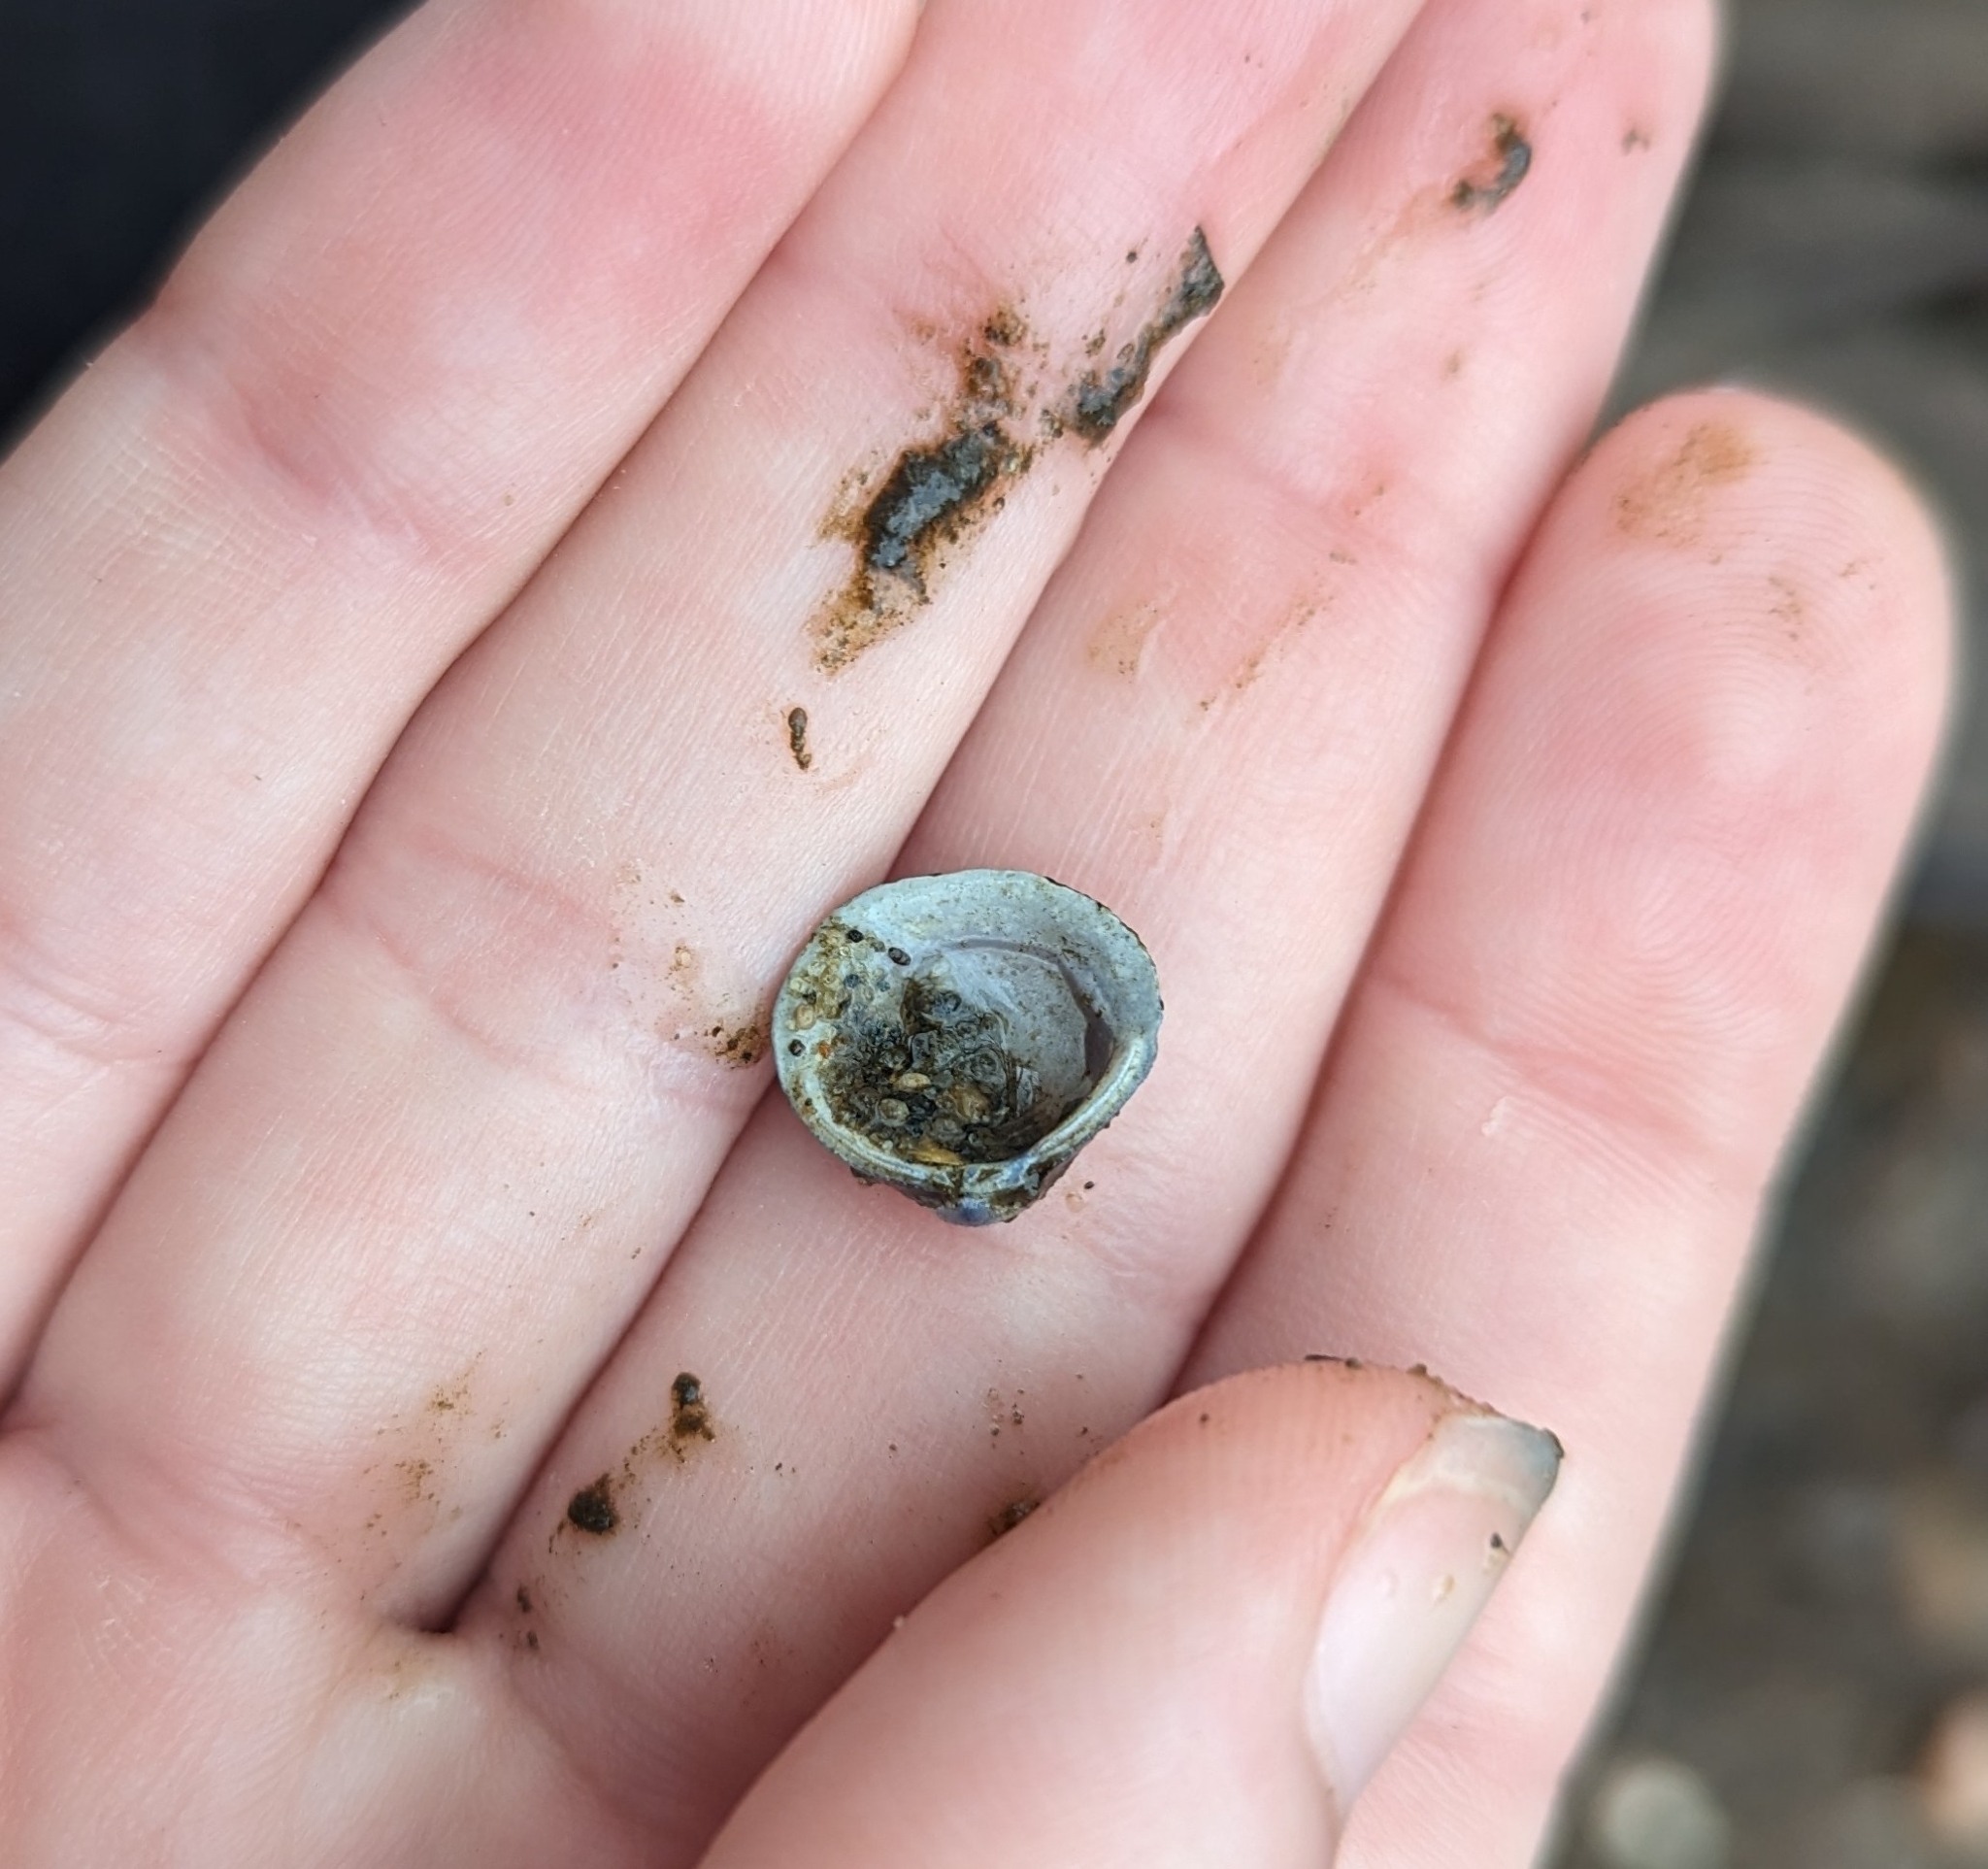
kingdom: Animalia
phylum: Mollusca
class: Bivalvia
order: Venerida
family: Cyrenidae
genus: Corbicula
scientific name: Corbicula fluminea
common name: Asian clam
